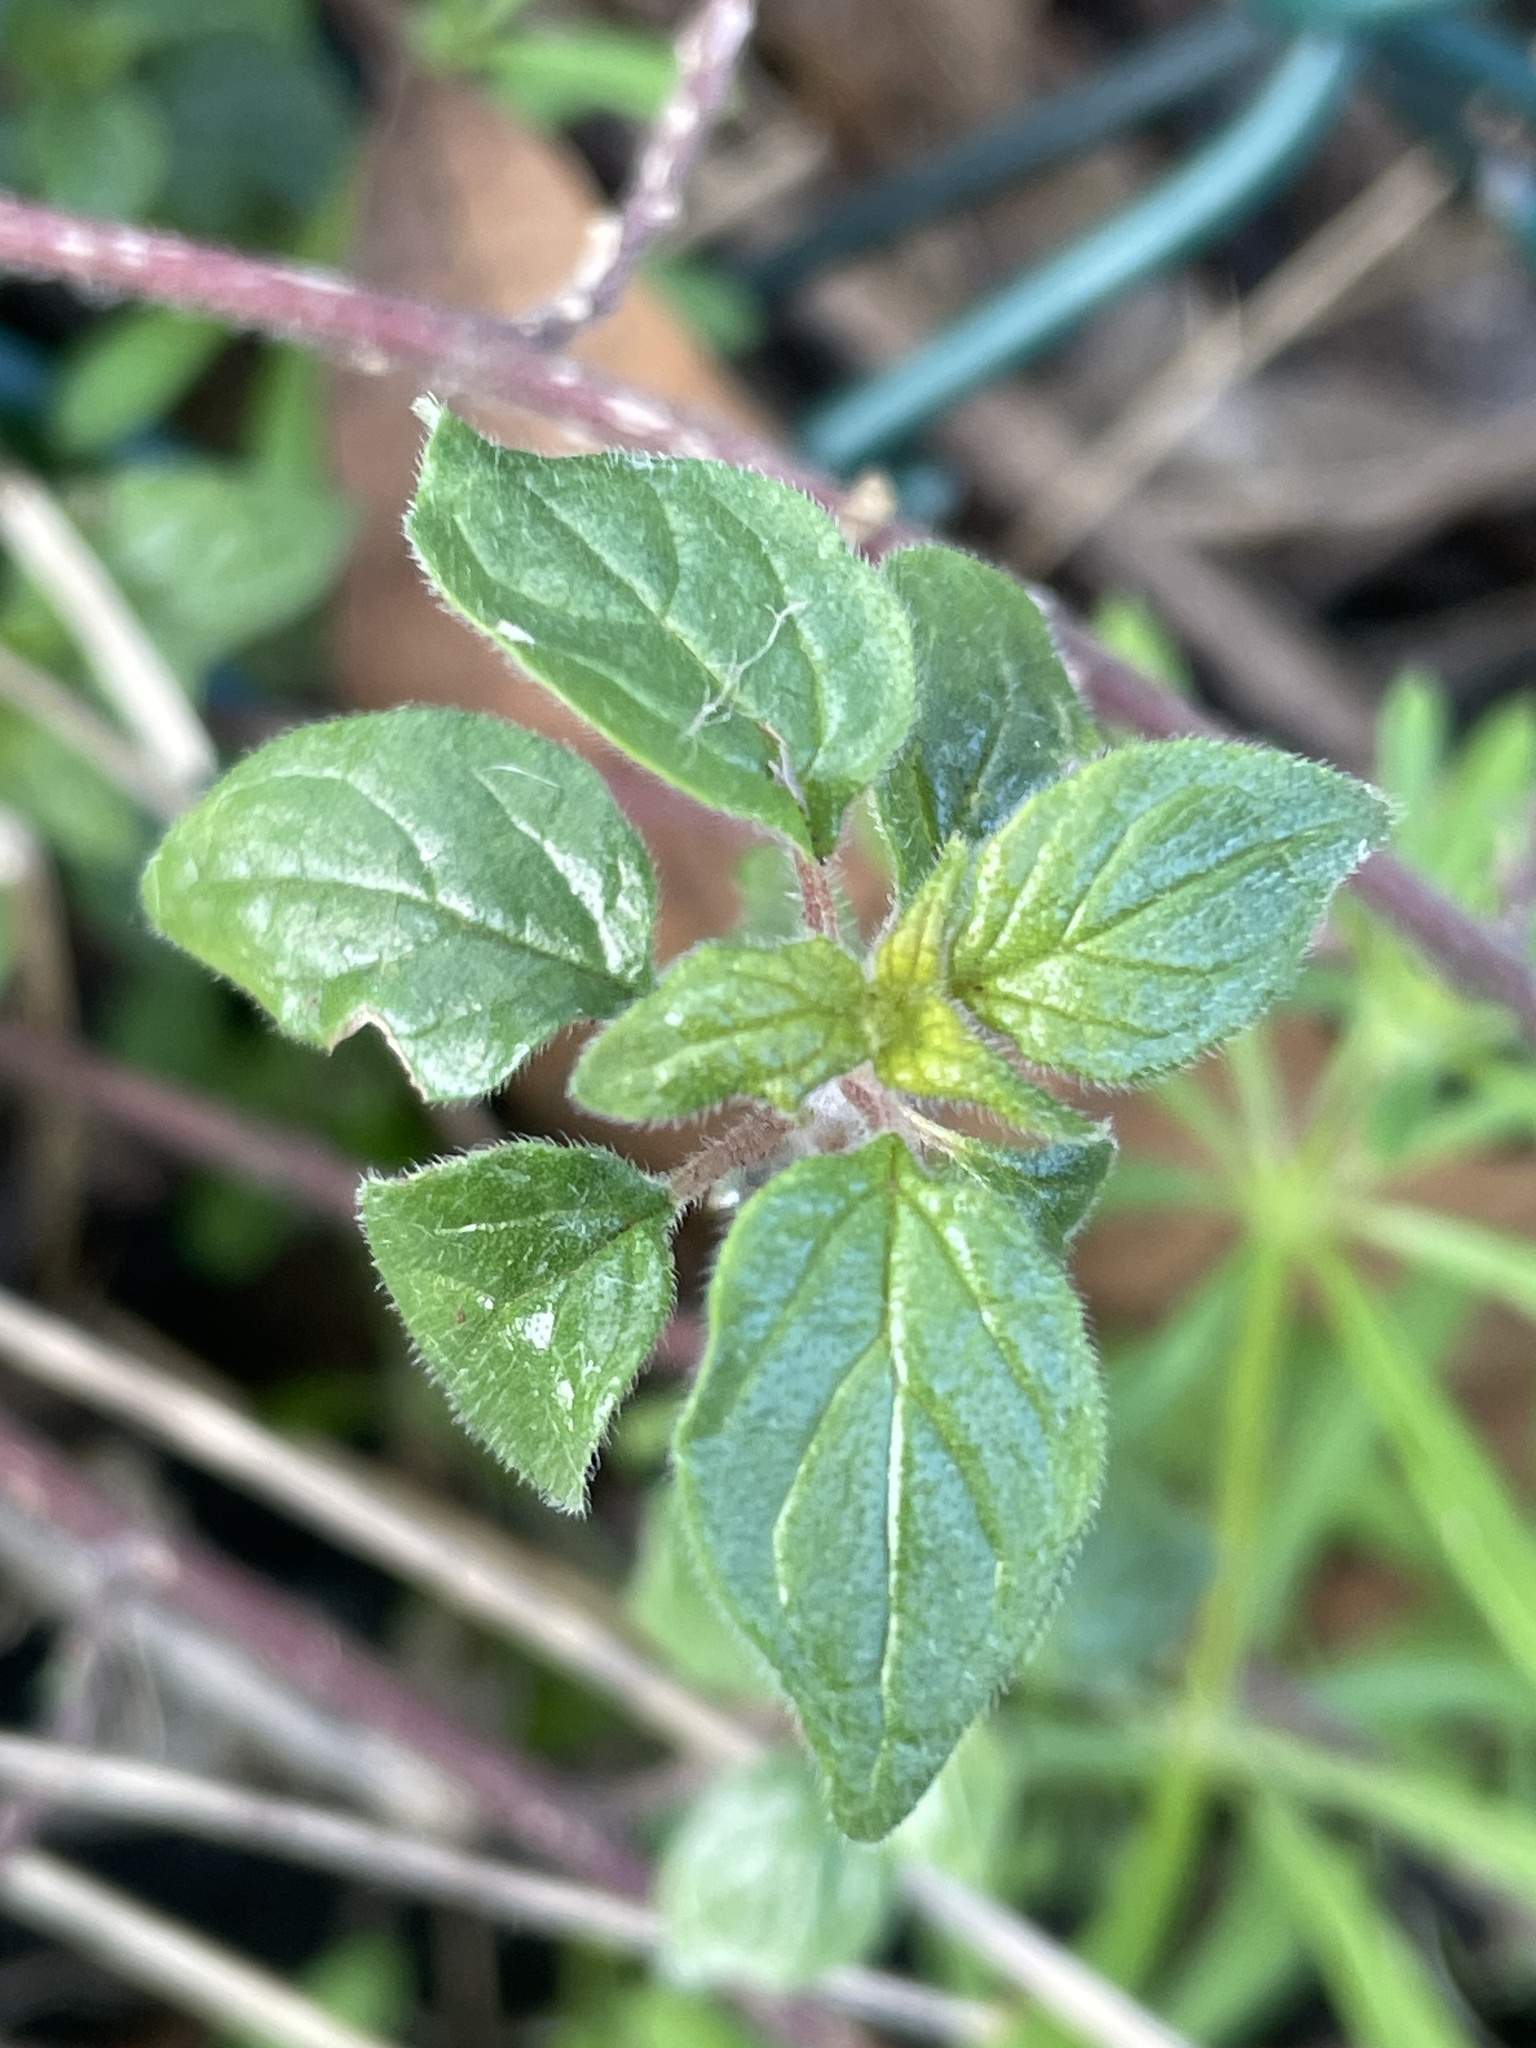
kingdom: Plantae
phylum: Tracheophyta
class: Magnoliopsida
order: Rosales
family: Urticaceae
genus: Parietaria
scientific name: Parietaria judaica
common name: Pellitory-of-the-wall
